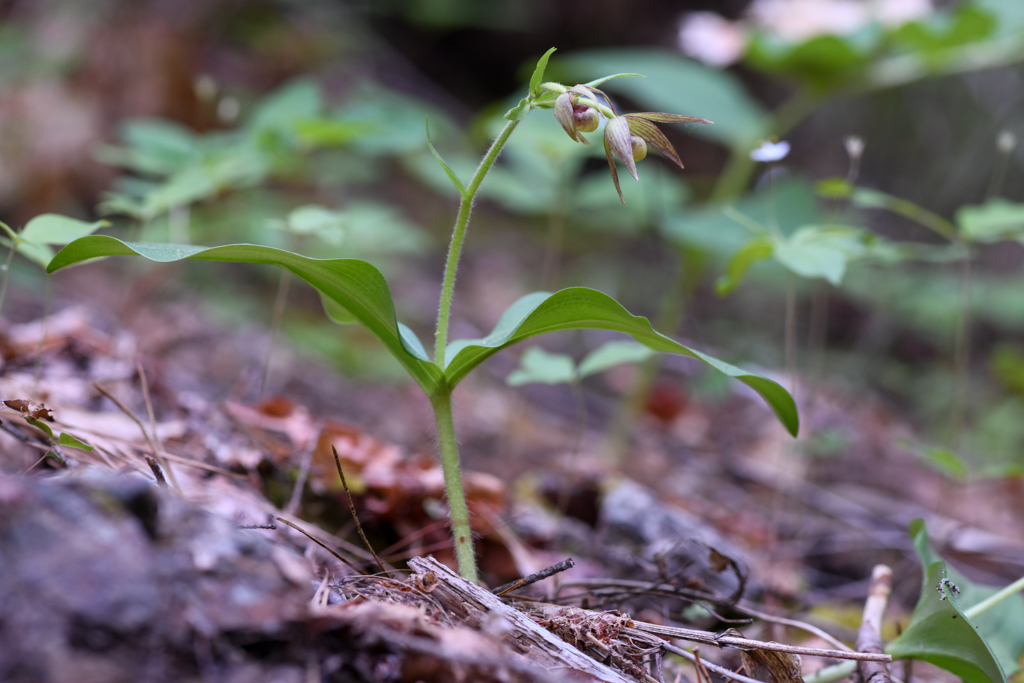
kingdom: Plantae
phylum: Tracheophyta
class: Liliopsida
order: Asparagales
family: Orchidaceae
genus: Cypripedium
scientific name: Cypripedium fasciculatum
